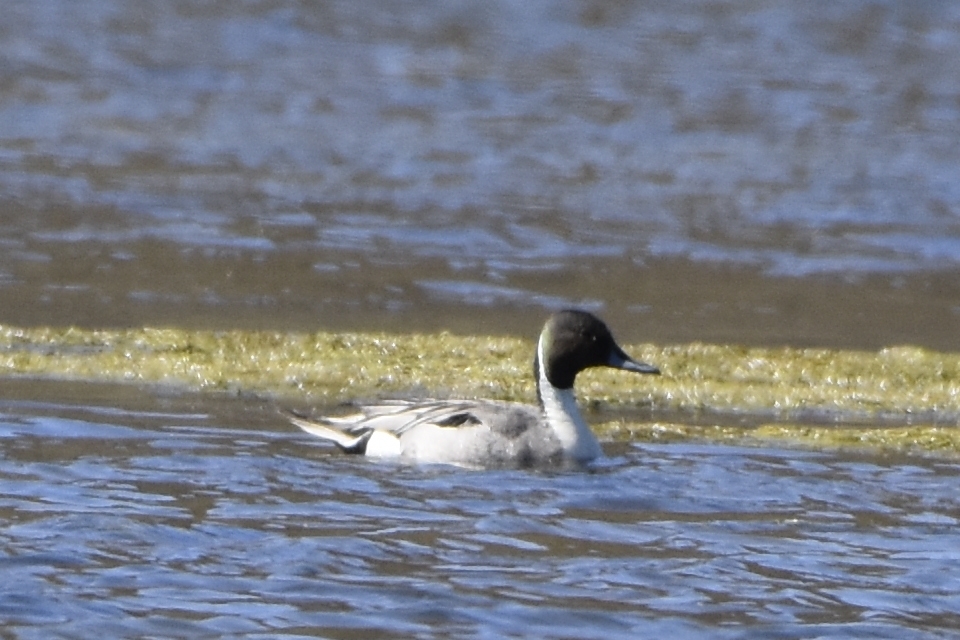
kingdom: Animalia
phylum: Chordata
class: Aves
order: Anseriformes
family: Anatidae
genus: Anas
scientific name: Anas acuta
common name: Northern pintail
